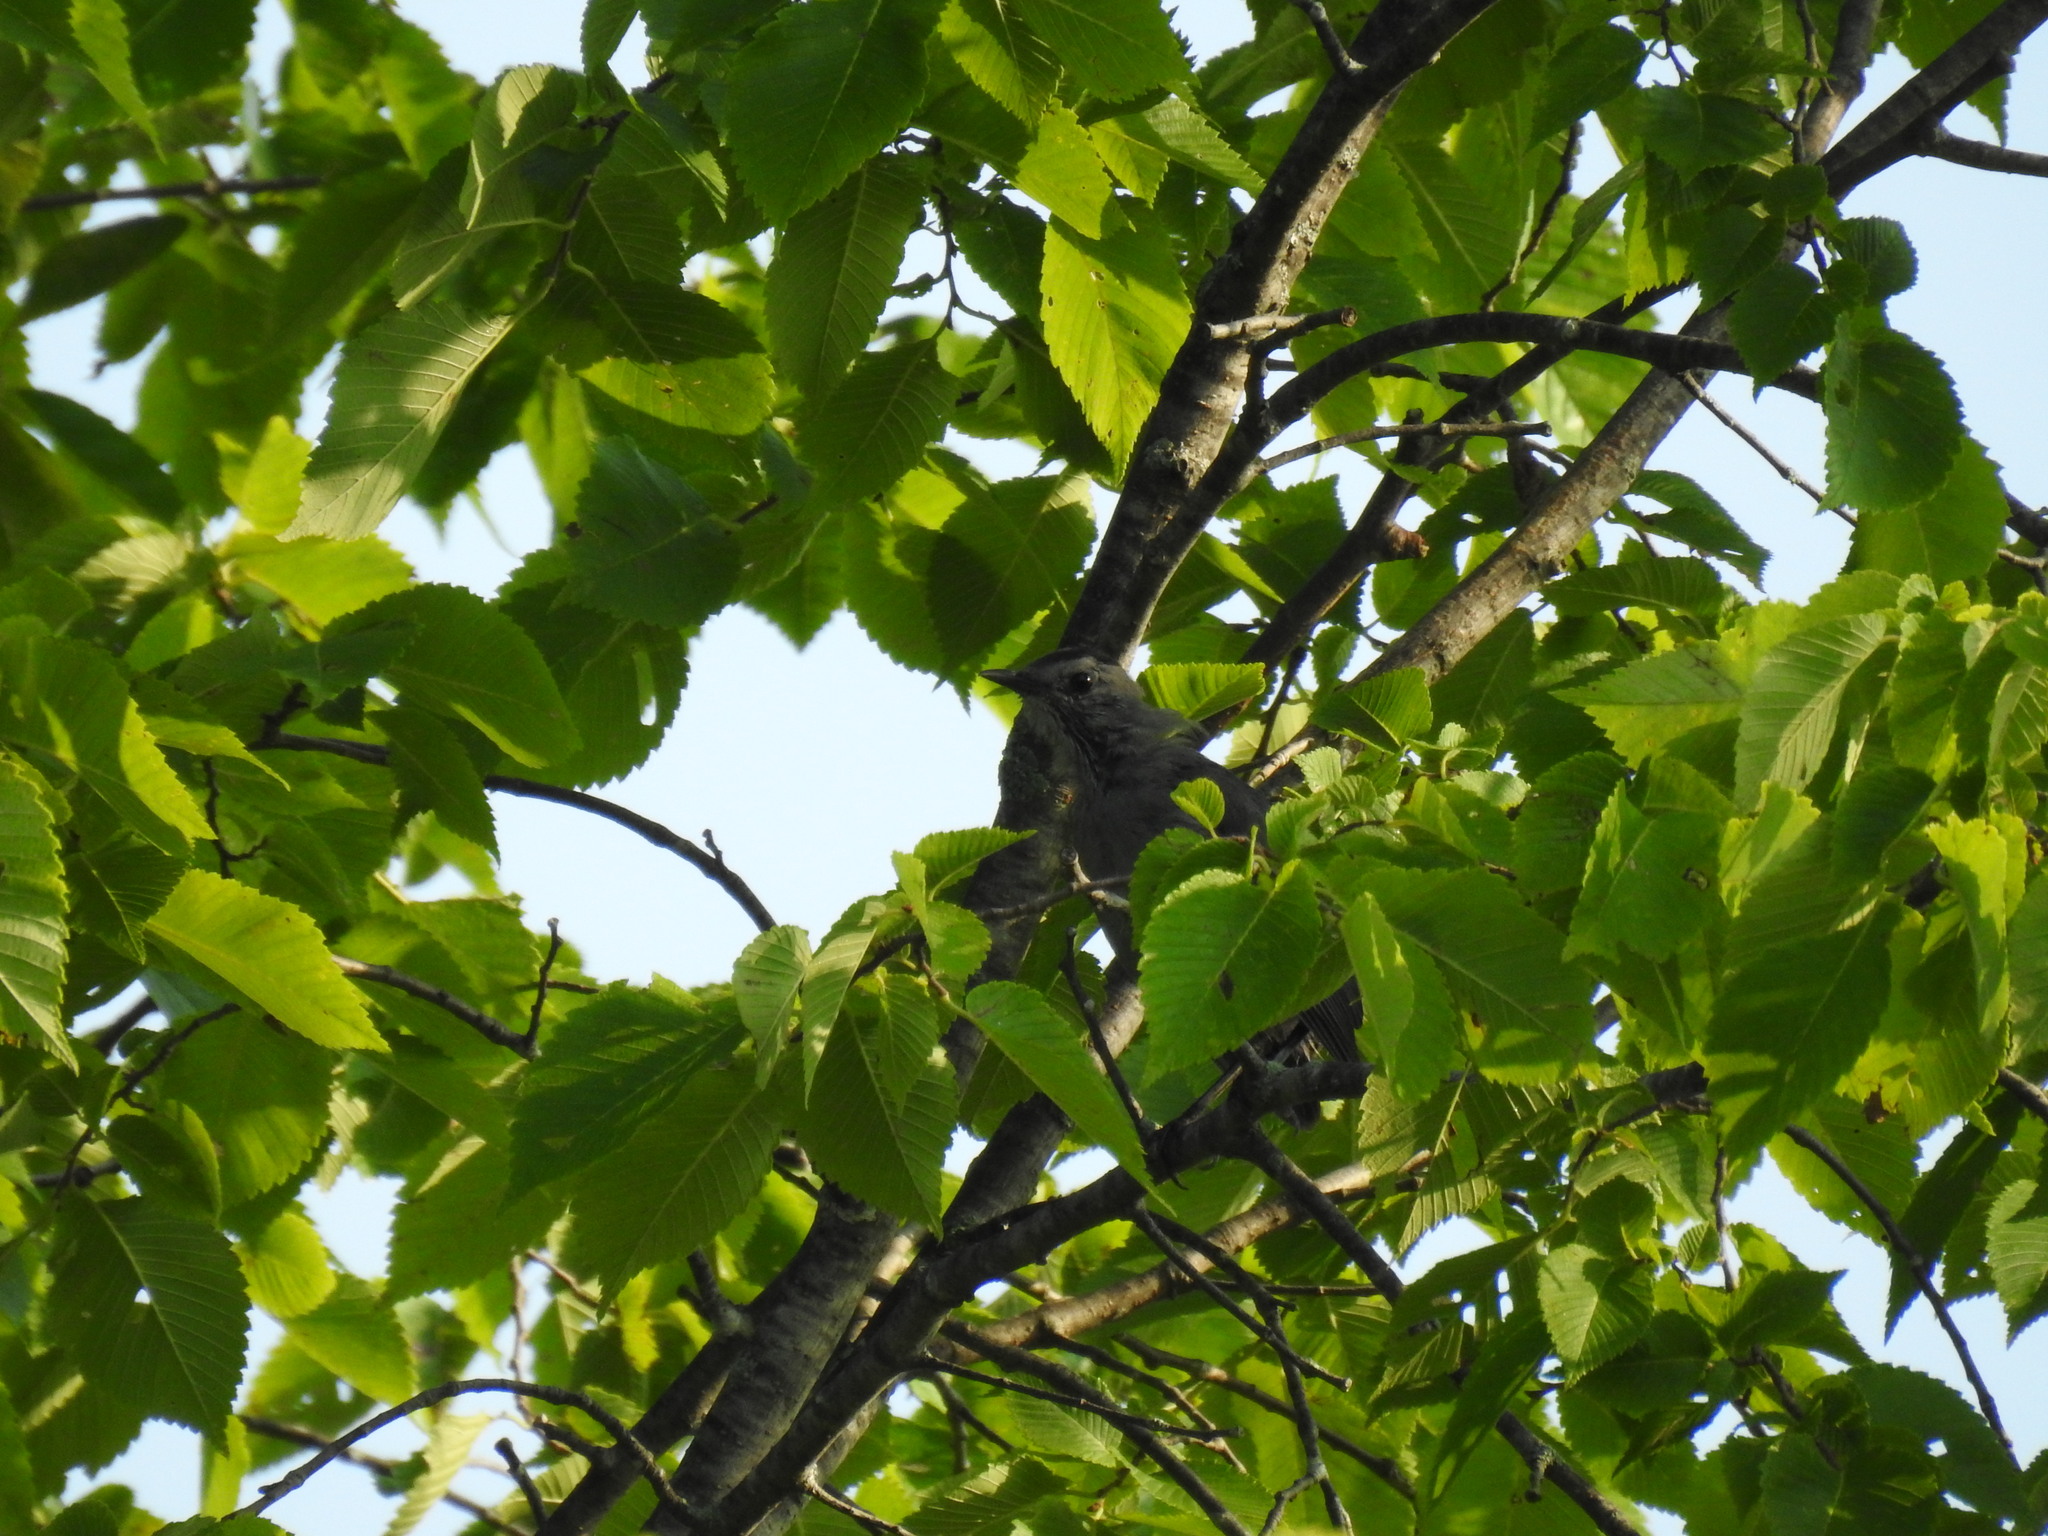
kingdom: Animalia
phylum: Chordata
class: Aves
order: Passeriformes
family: Mimidae
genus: Dumetella
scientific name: Dumetella carolinensis
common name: Gray catbird
